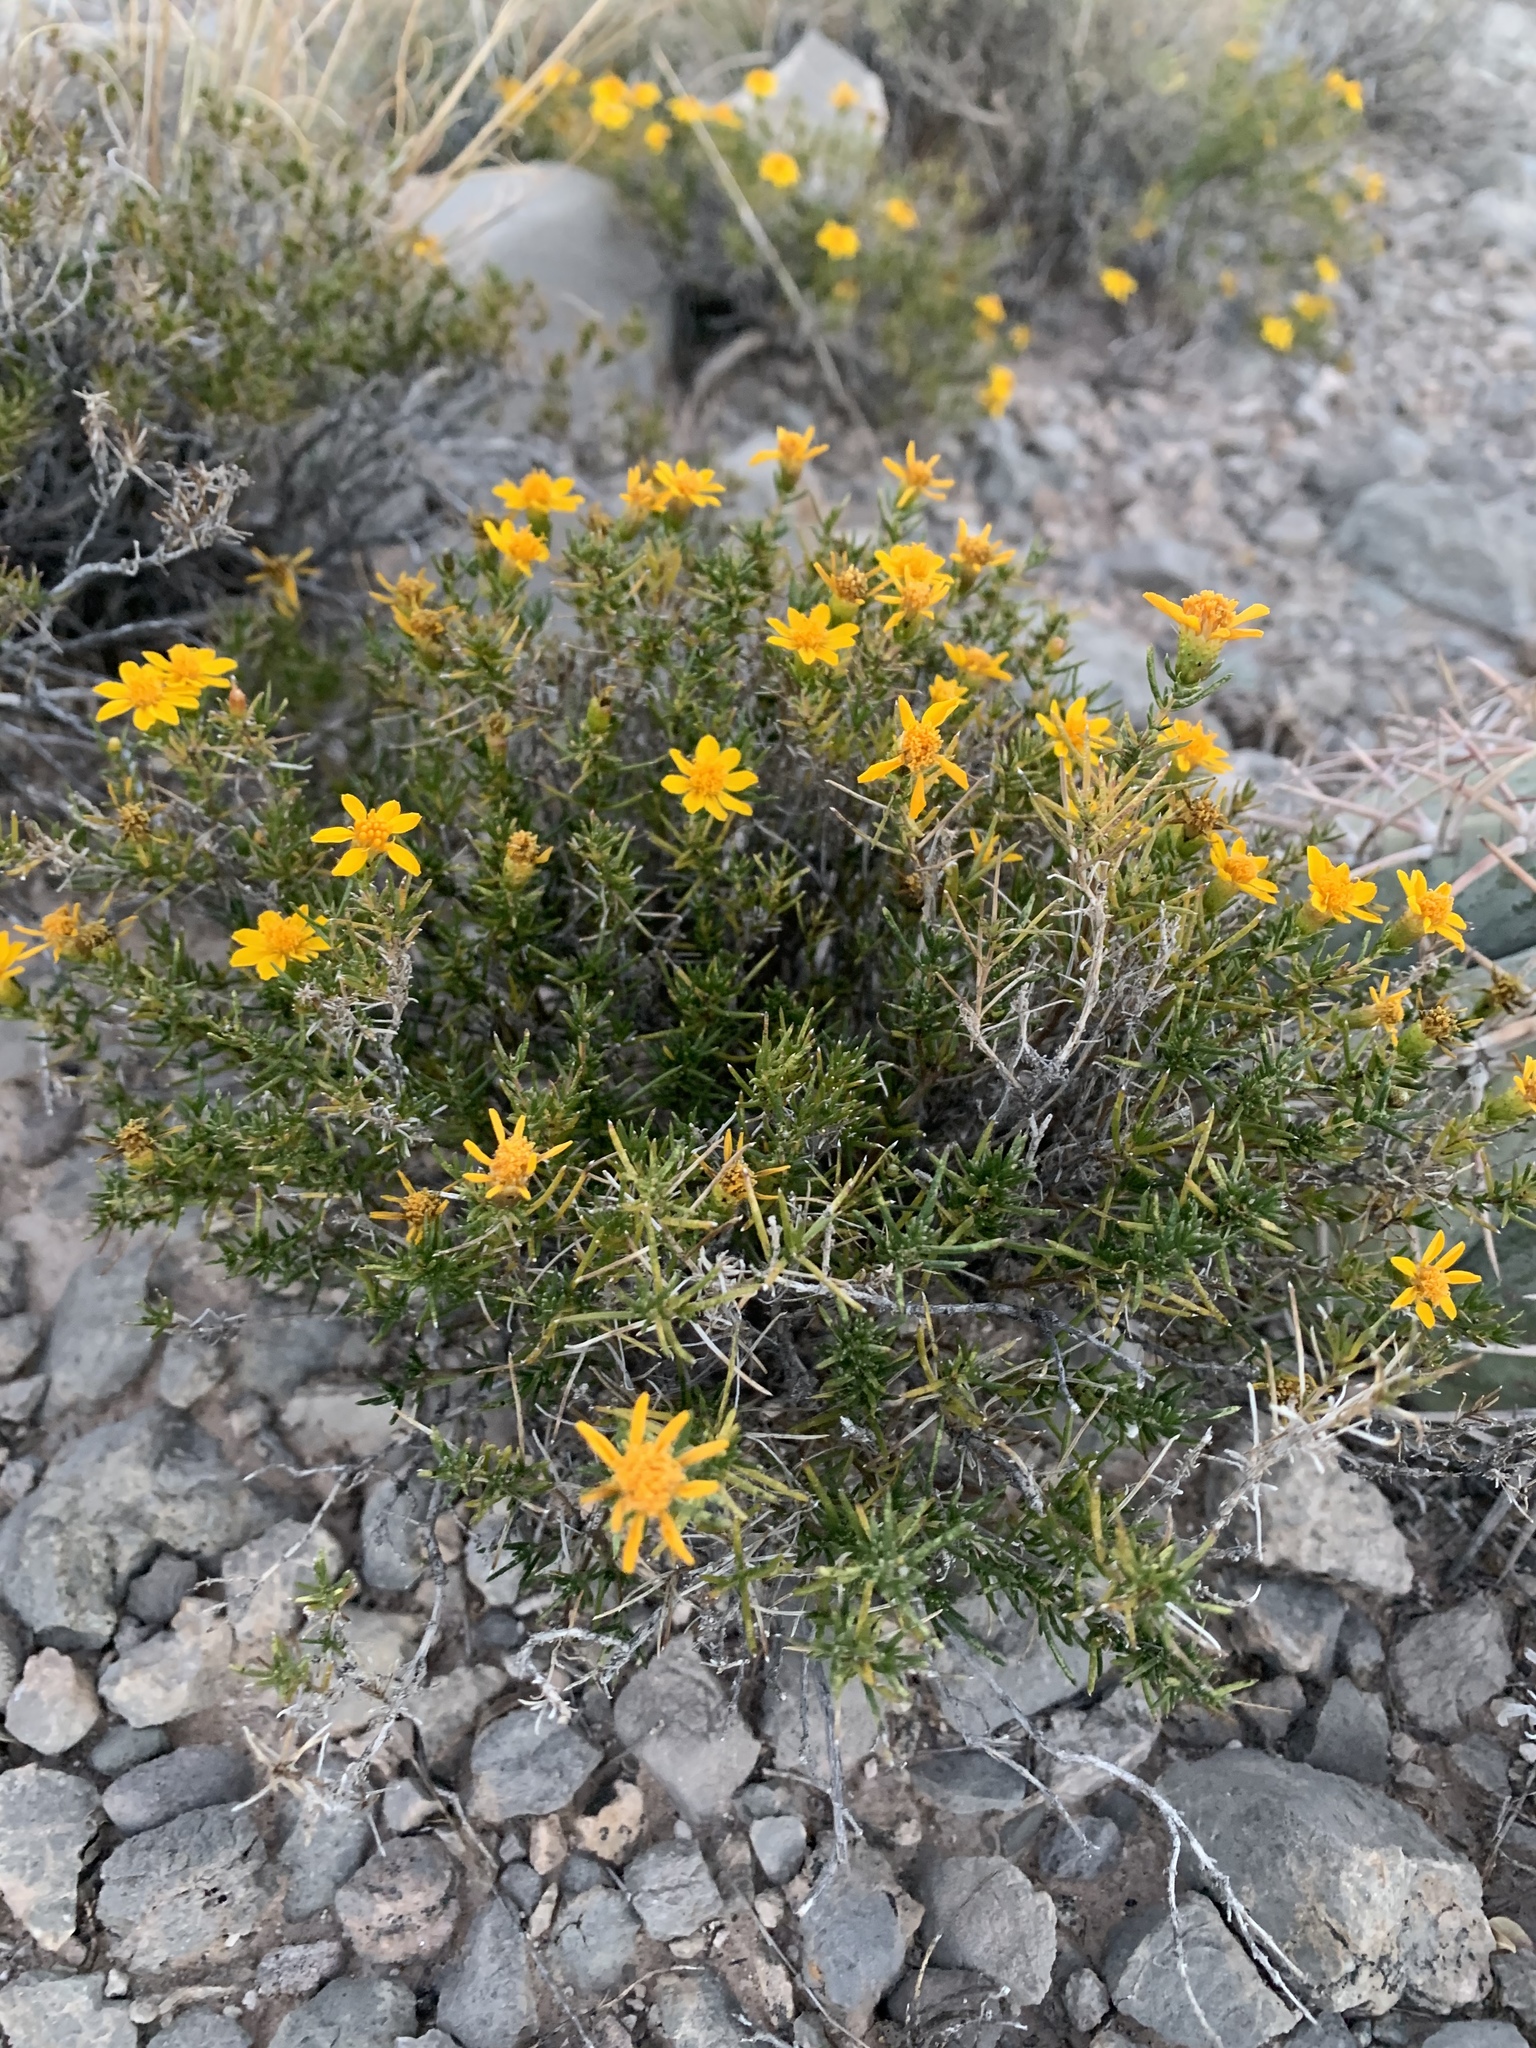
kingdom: Plantae
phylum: Tracheophyta
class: Magnoliopsida
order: Asterales
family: Asteraceae
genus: Thymophylla
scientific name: Thymophylla acerosa
